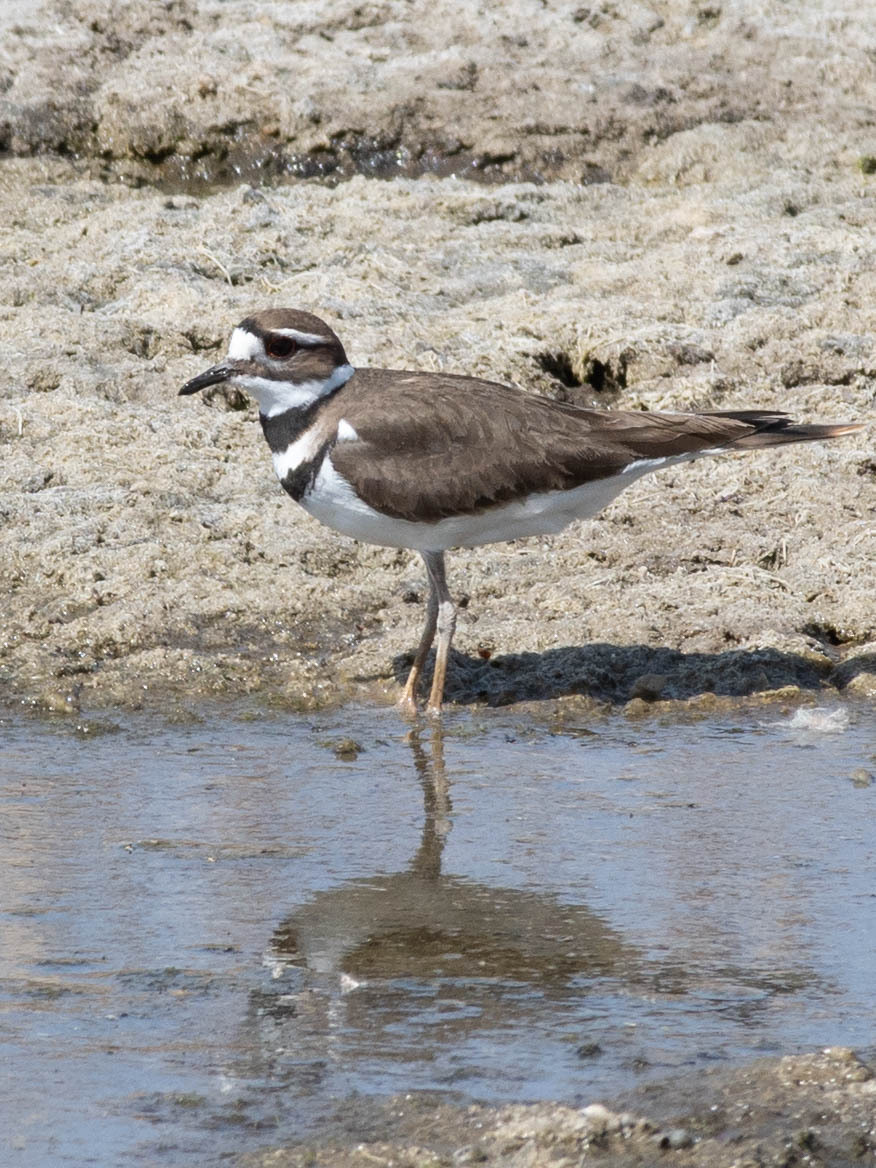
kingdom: Animalia
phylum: Chordata
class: Aves
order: Charadriiformes
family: Charadriidae
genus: Charadrius
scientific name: Charadrius vociferus
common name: Killdeer
